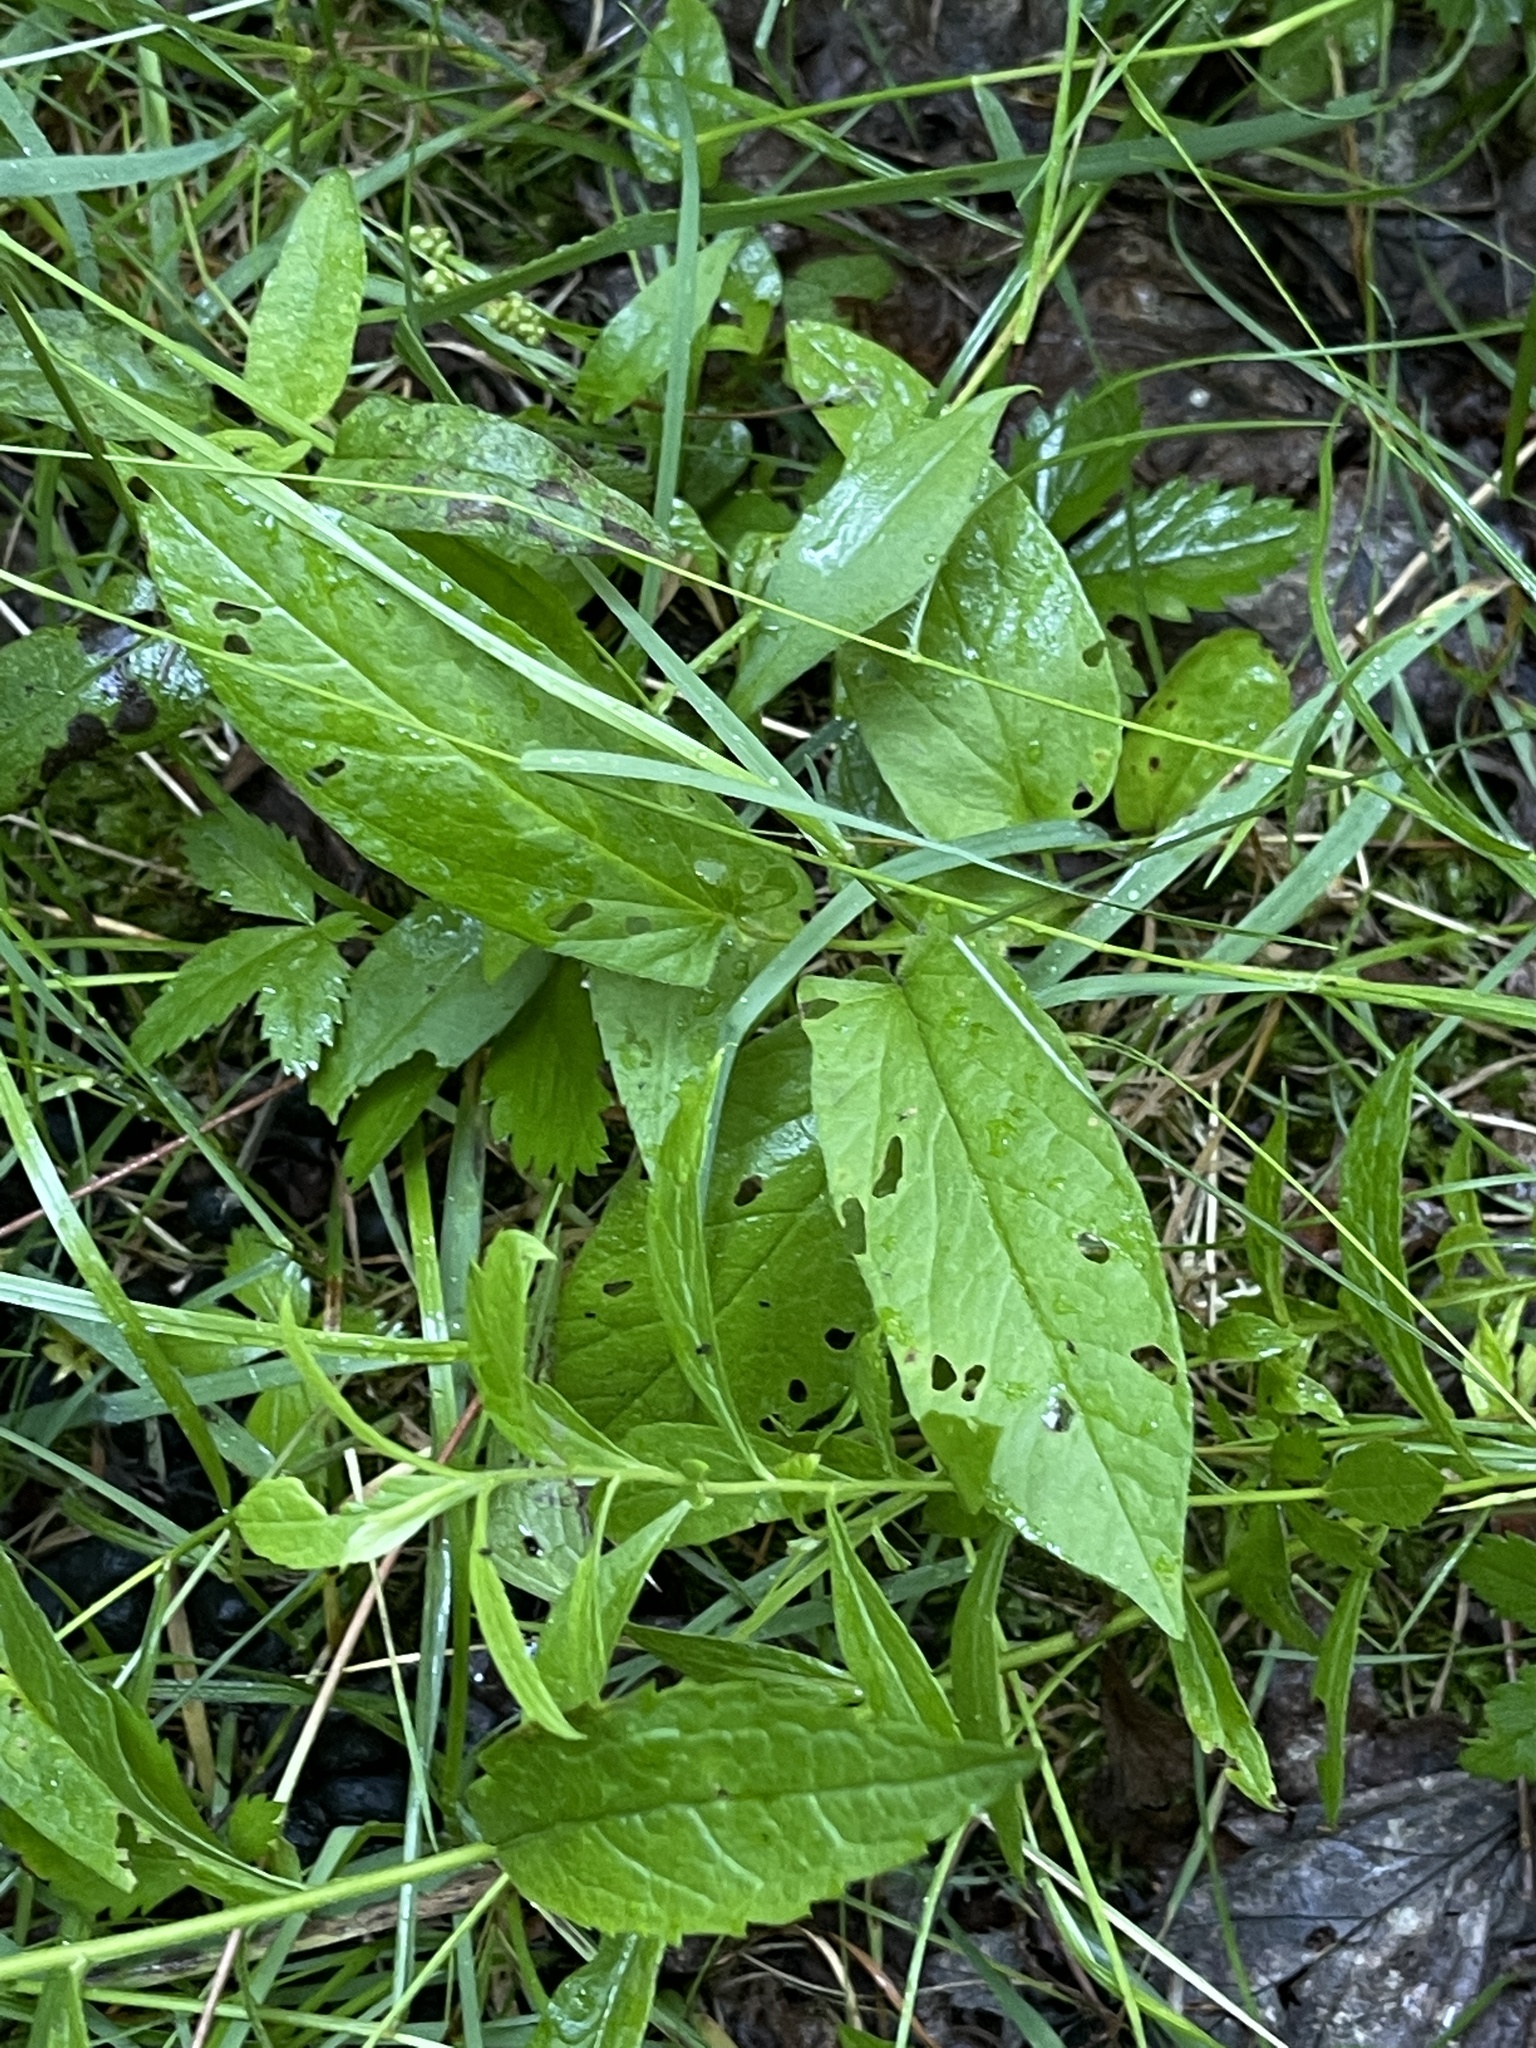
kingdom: Plantae
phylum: Tracheophyta
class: Magnoliopsida
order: Solanales
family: Convolvulaceae
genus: Calystegia
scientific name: Calystegia spithamaea
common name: Dwarf bindweed
